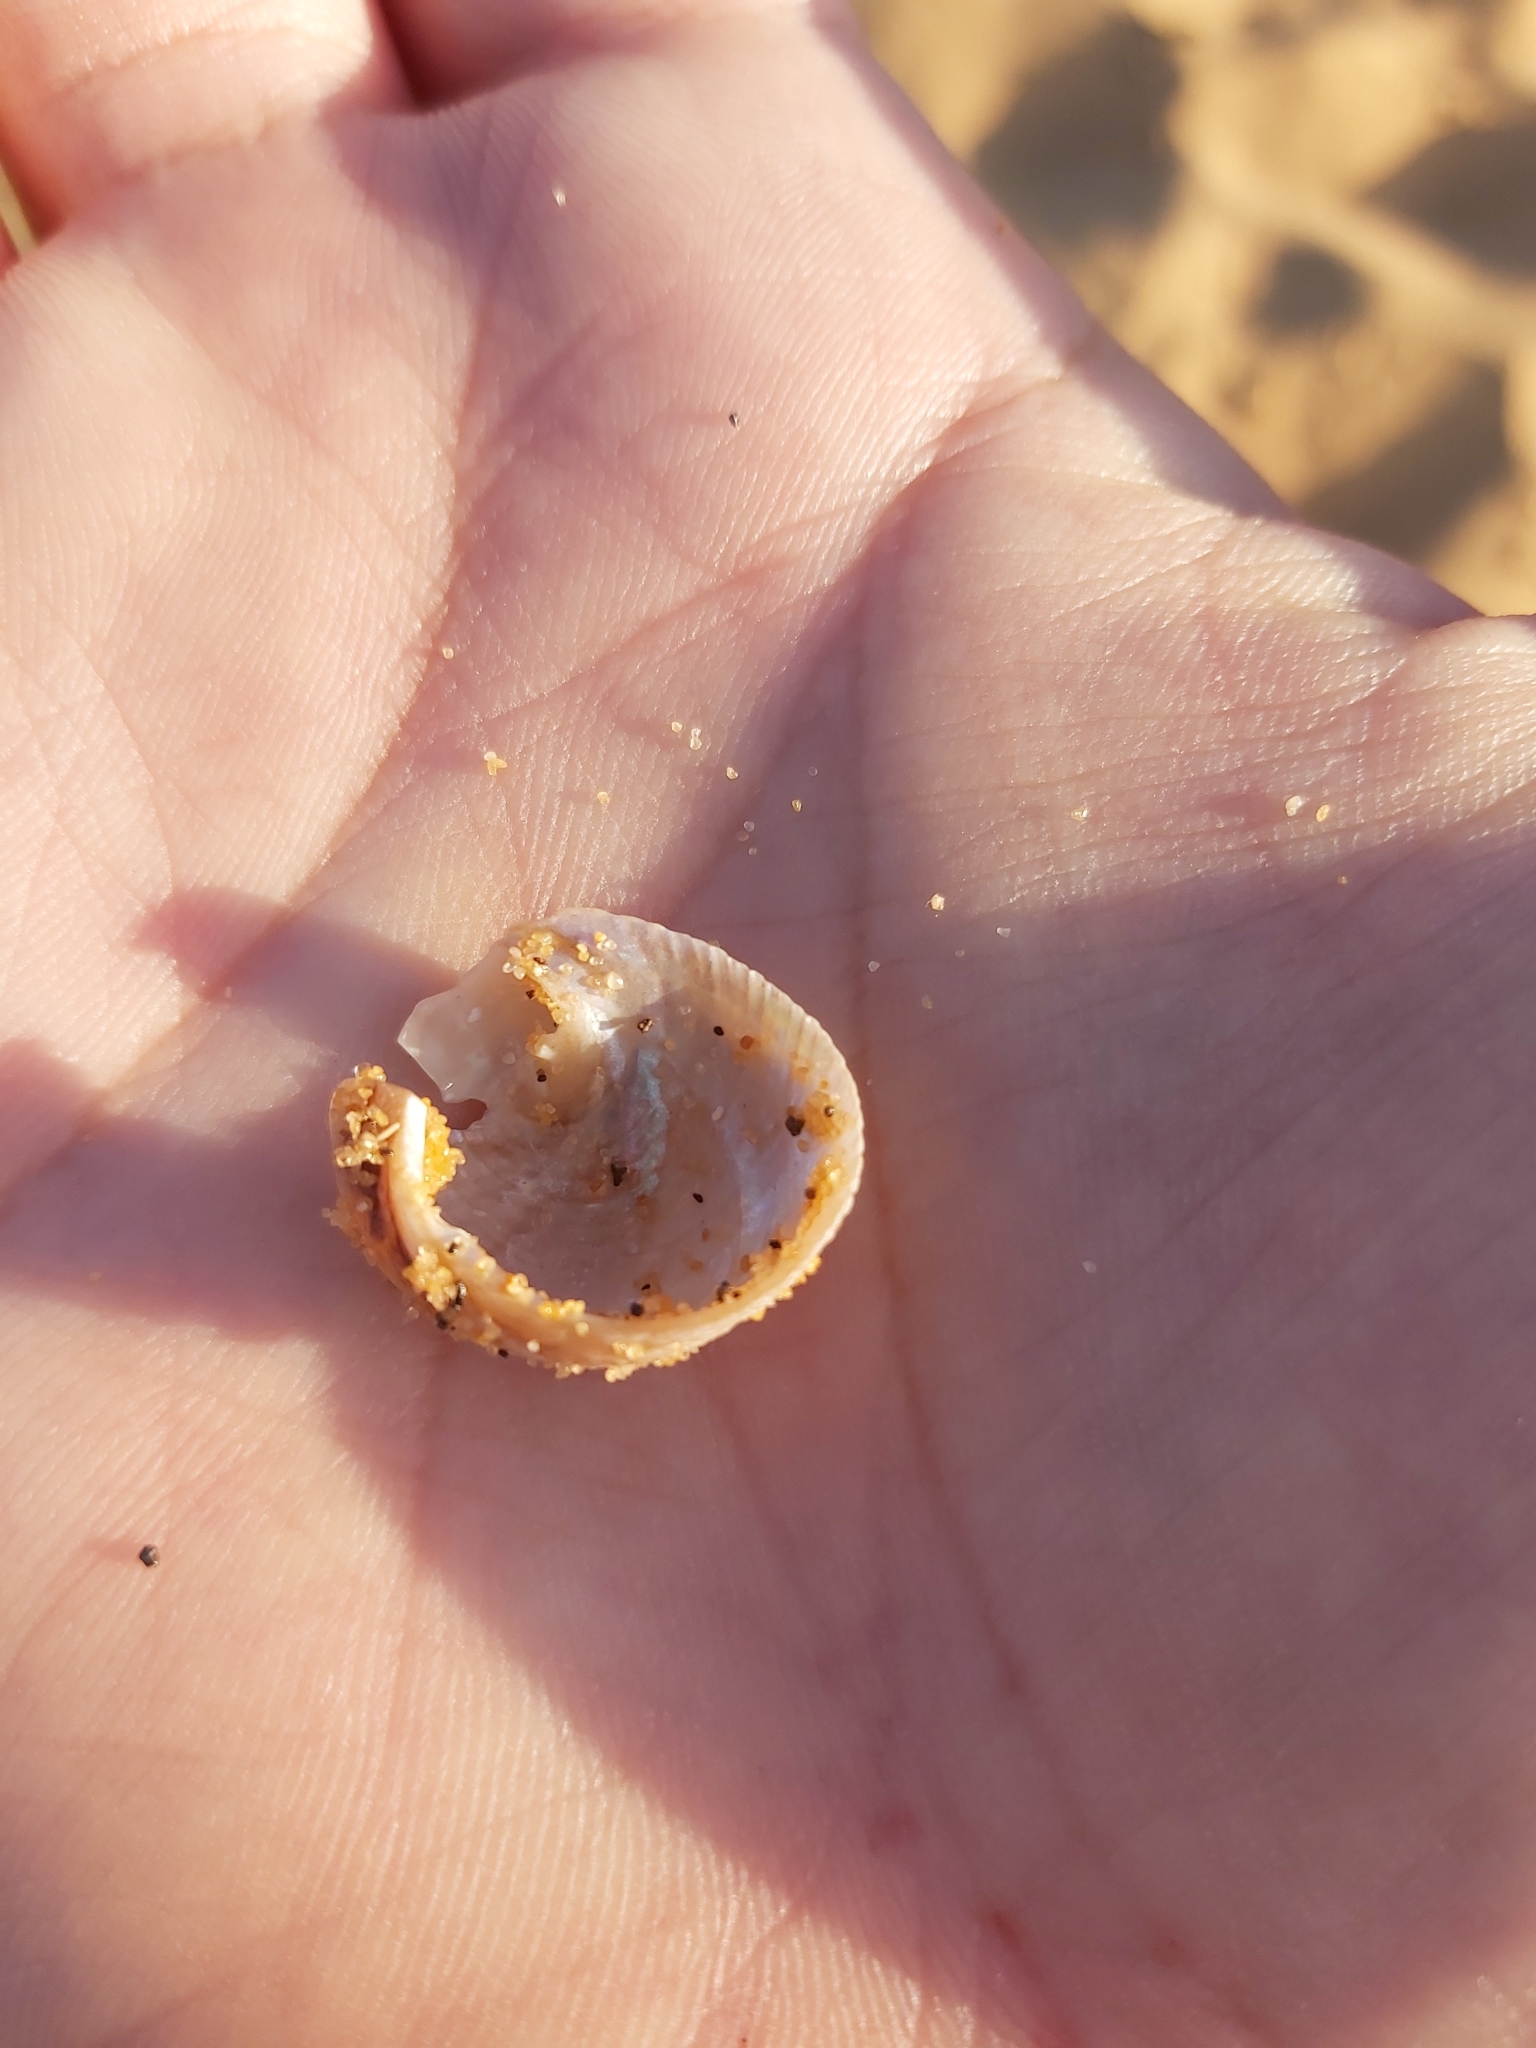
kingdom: Animalia
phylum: Mollusca
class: Gastropoda
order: Seguenziida
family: Chilodontaidae
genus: Granata
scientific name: Granata imbricata
